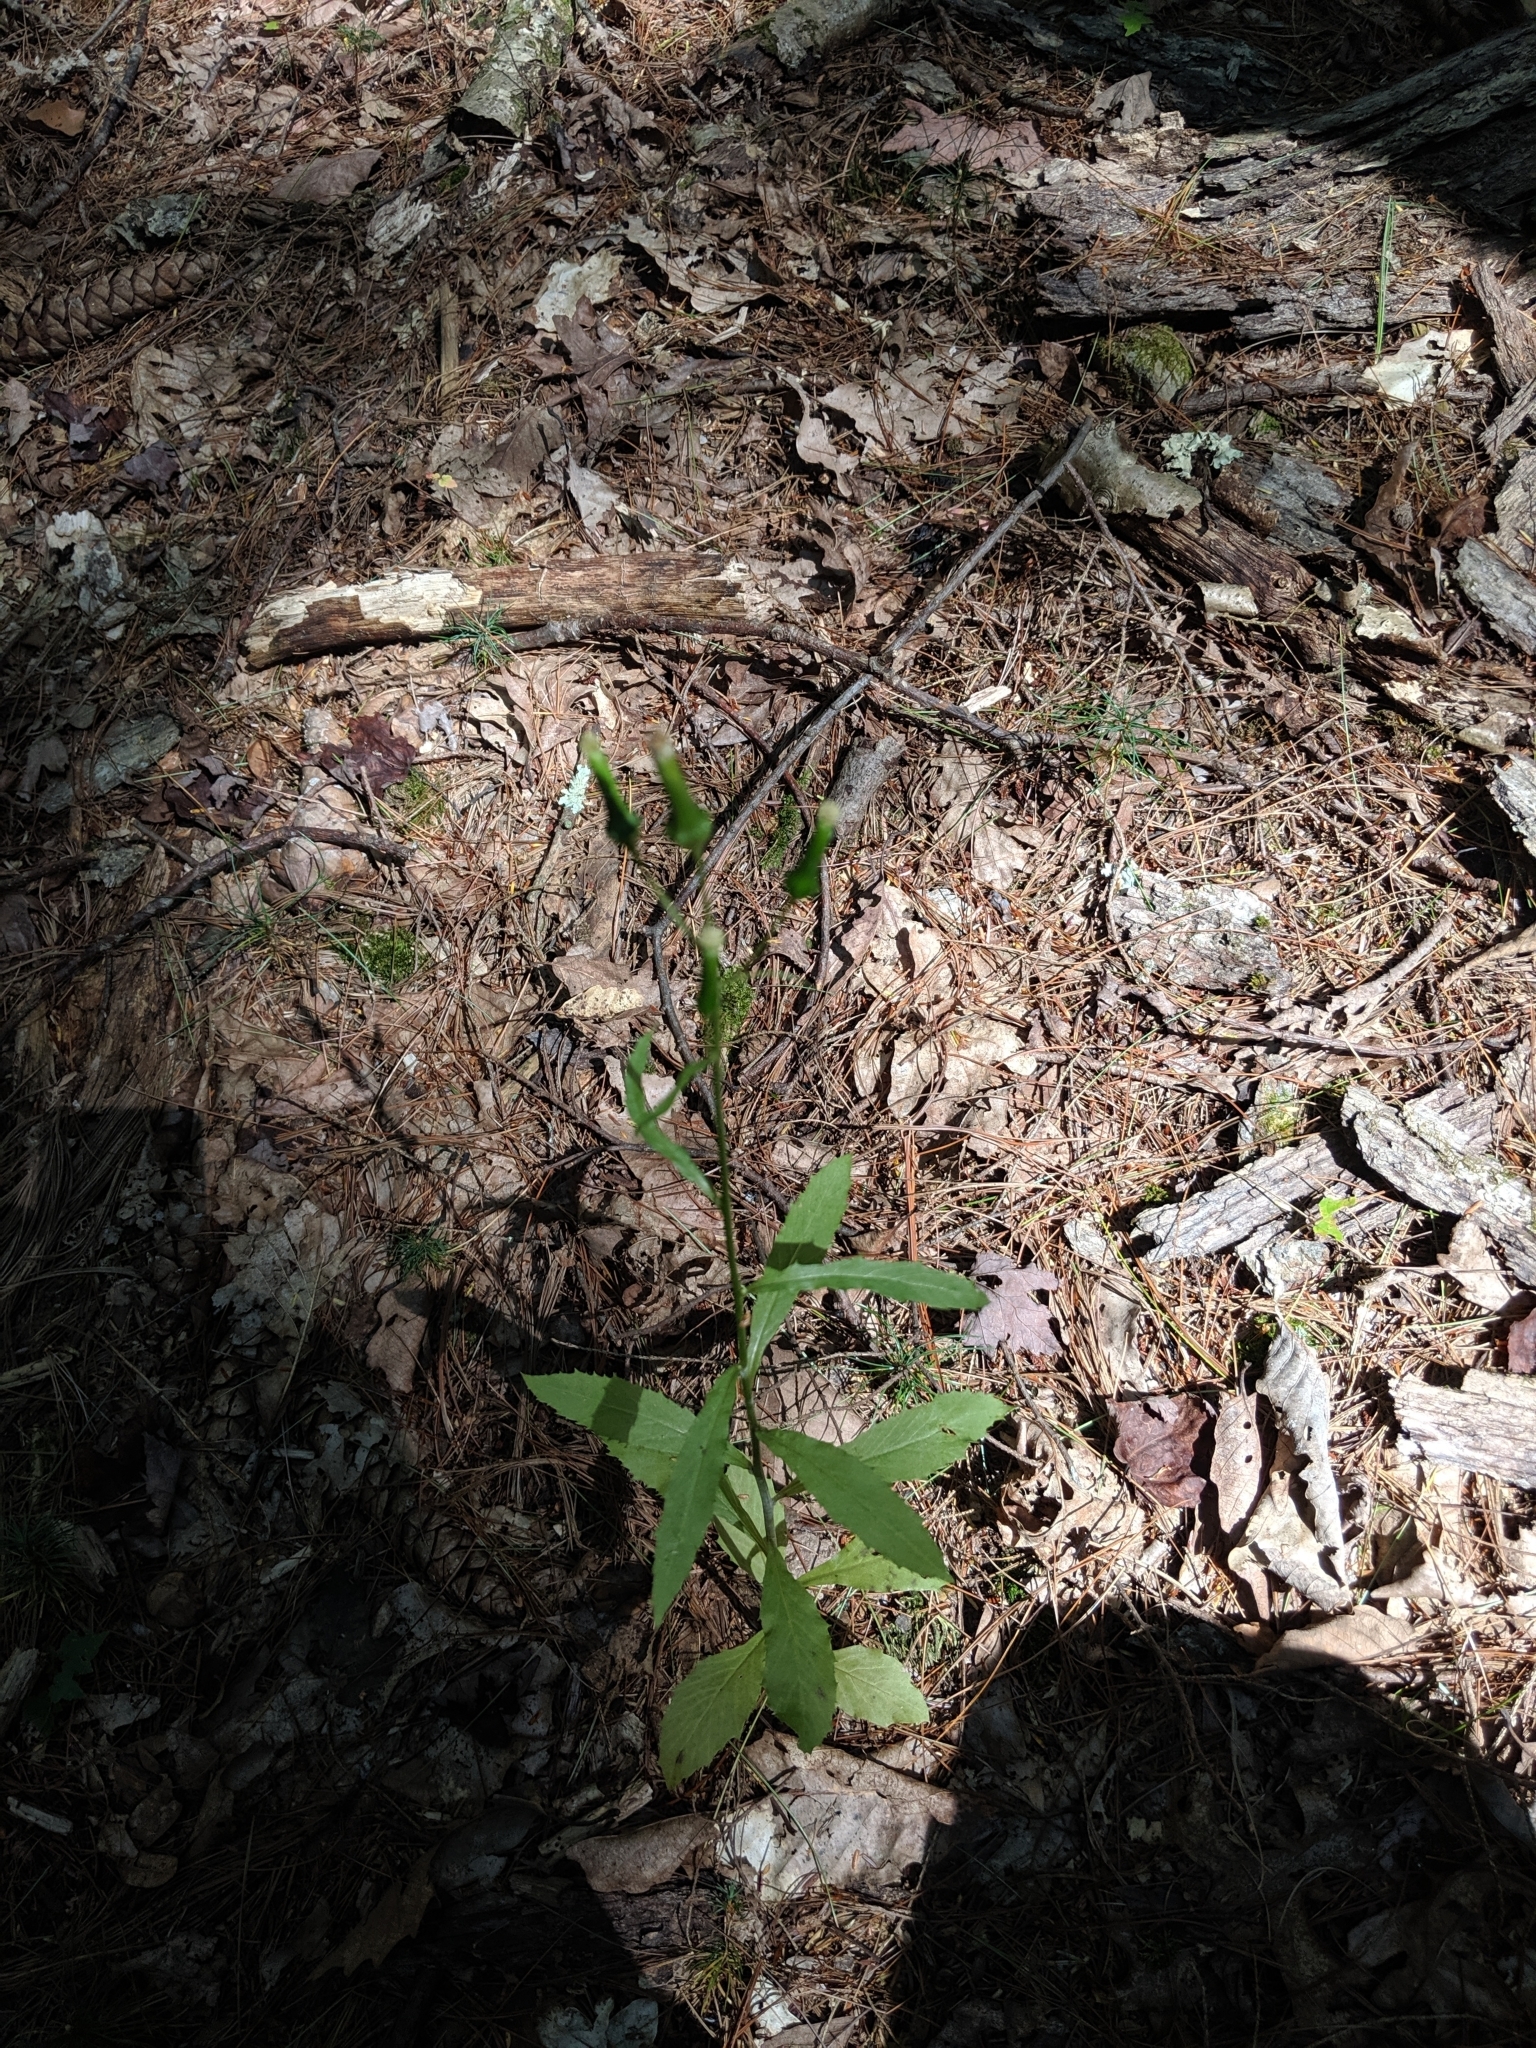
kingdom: Plantae
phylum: Tracheophyta
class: Magnoliopsida
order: Asterales
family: Asteraceae
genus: Erechtites
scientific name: Erechtites hieraciifolius
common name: American burnweed
